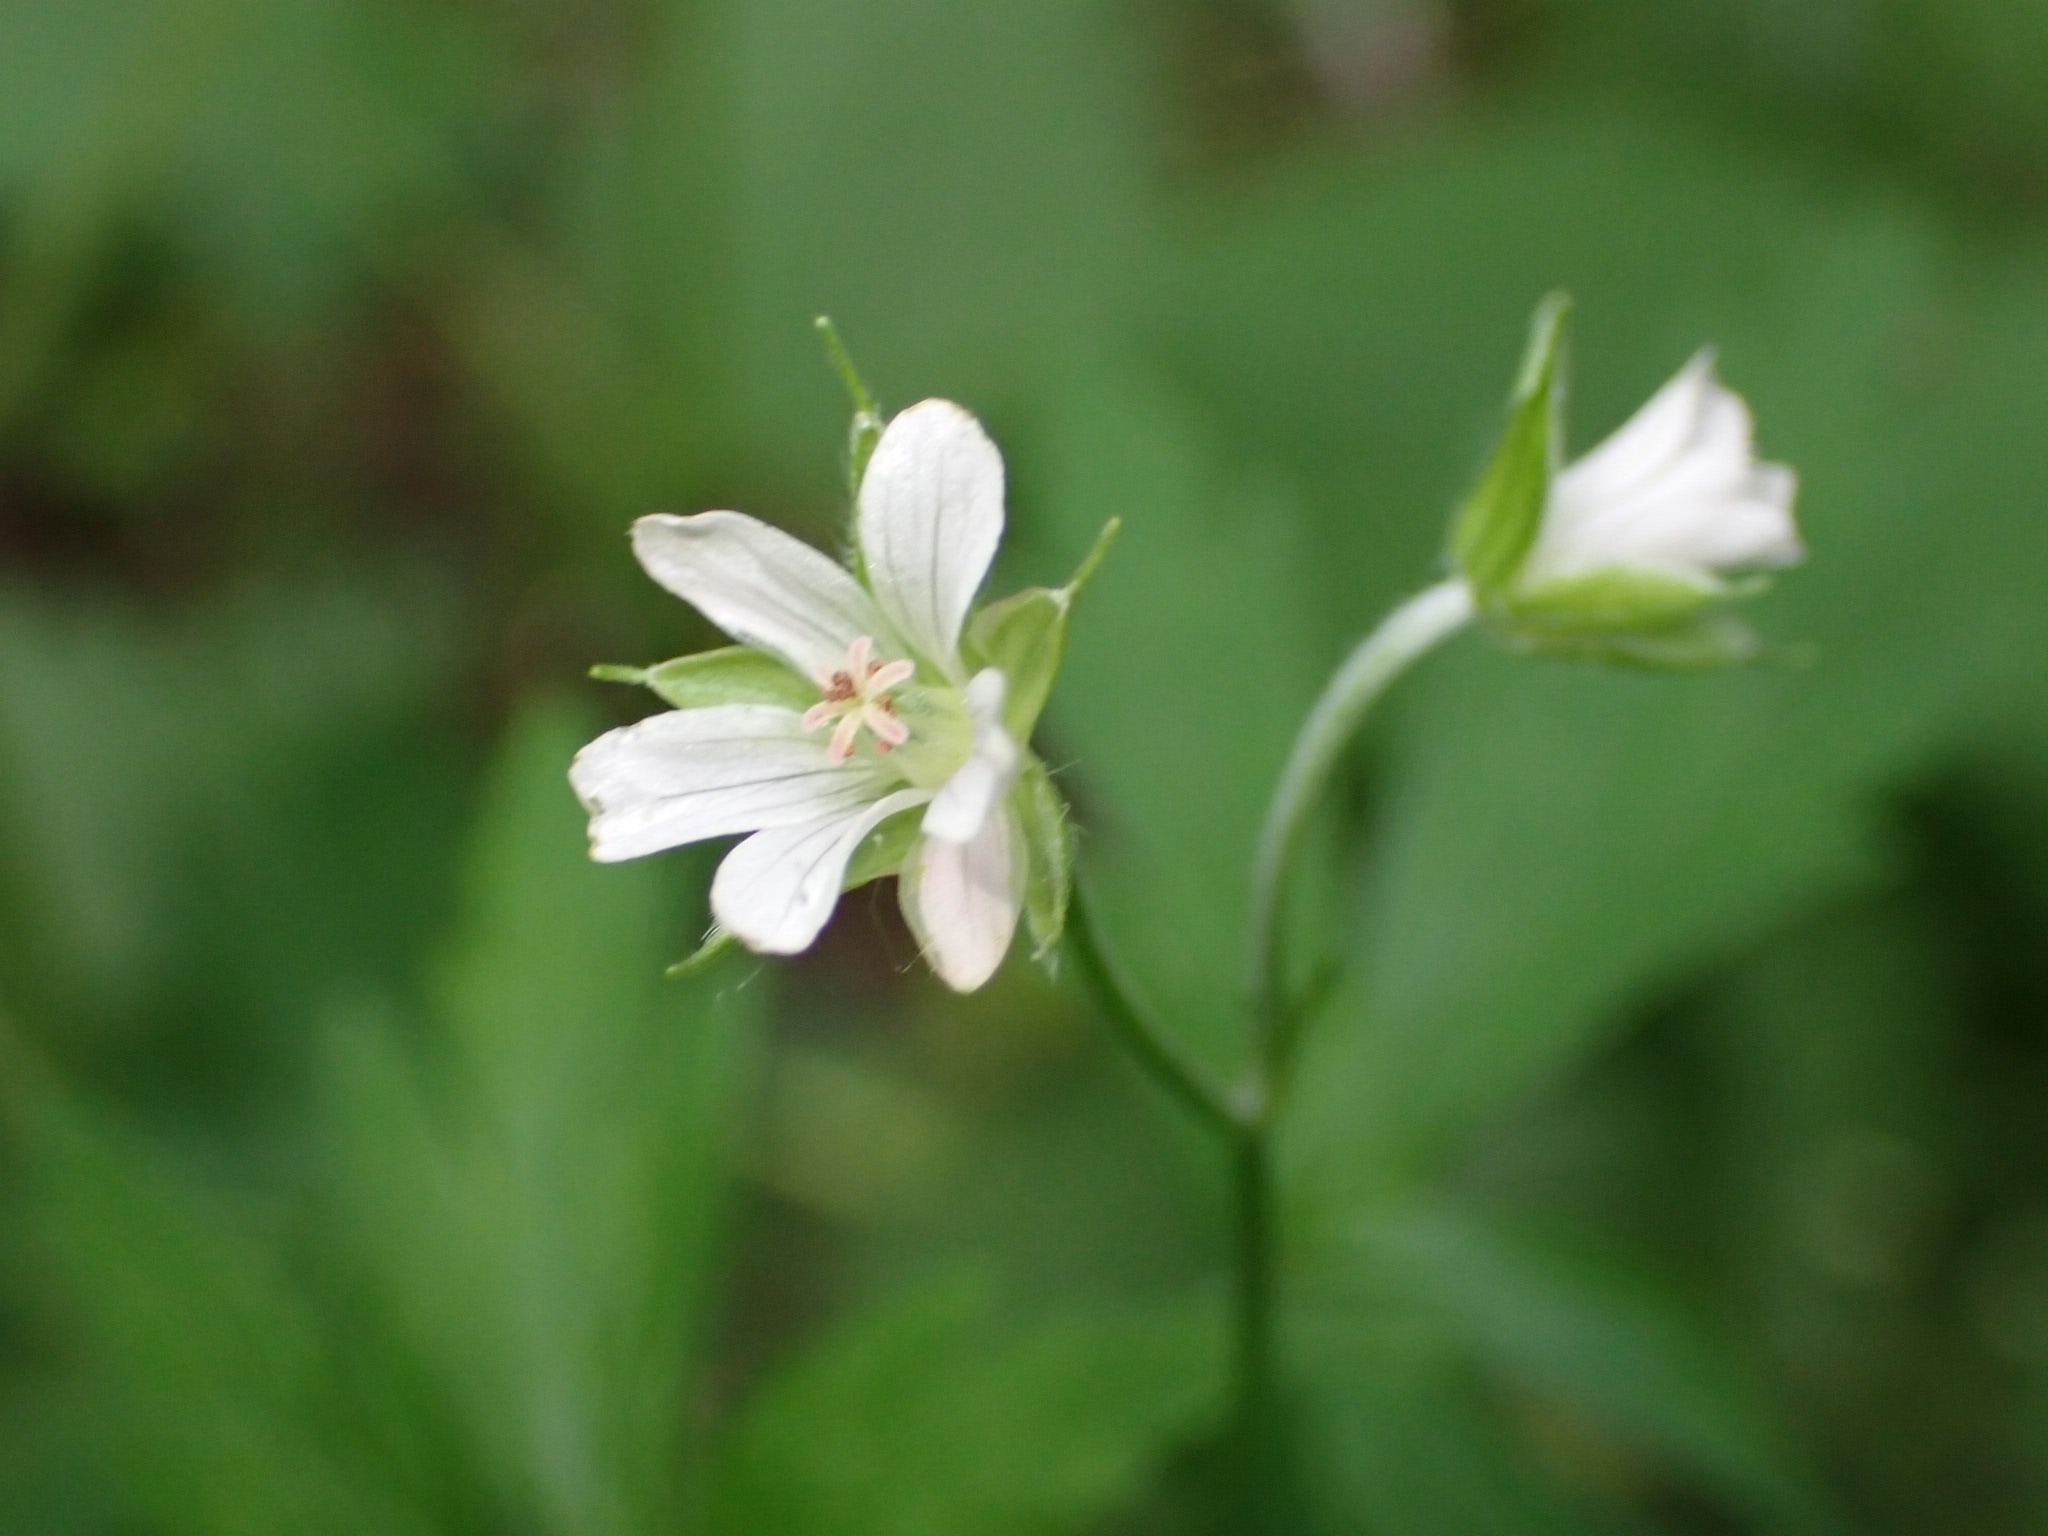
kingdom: Plantae
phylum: Tracheophyta
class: Magnoliopsida
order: Geraniales
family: Geraniaceae
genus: Geranium
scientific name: Geranium sibiricum
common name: Siberian crane's-bill
